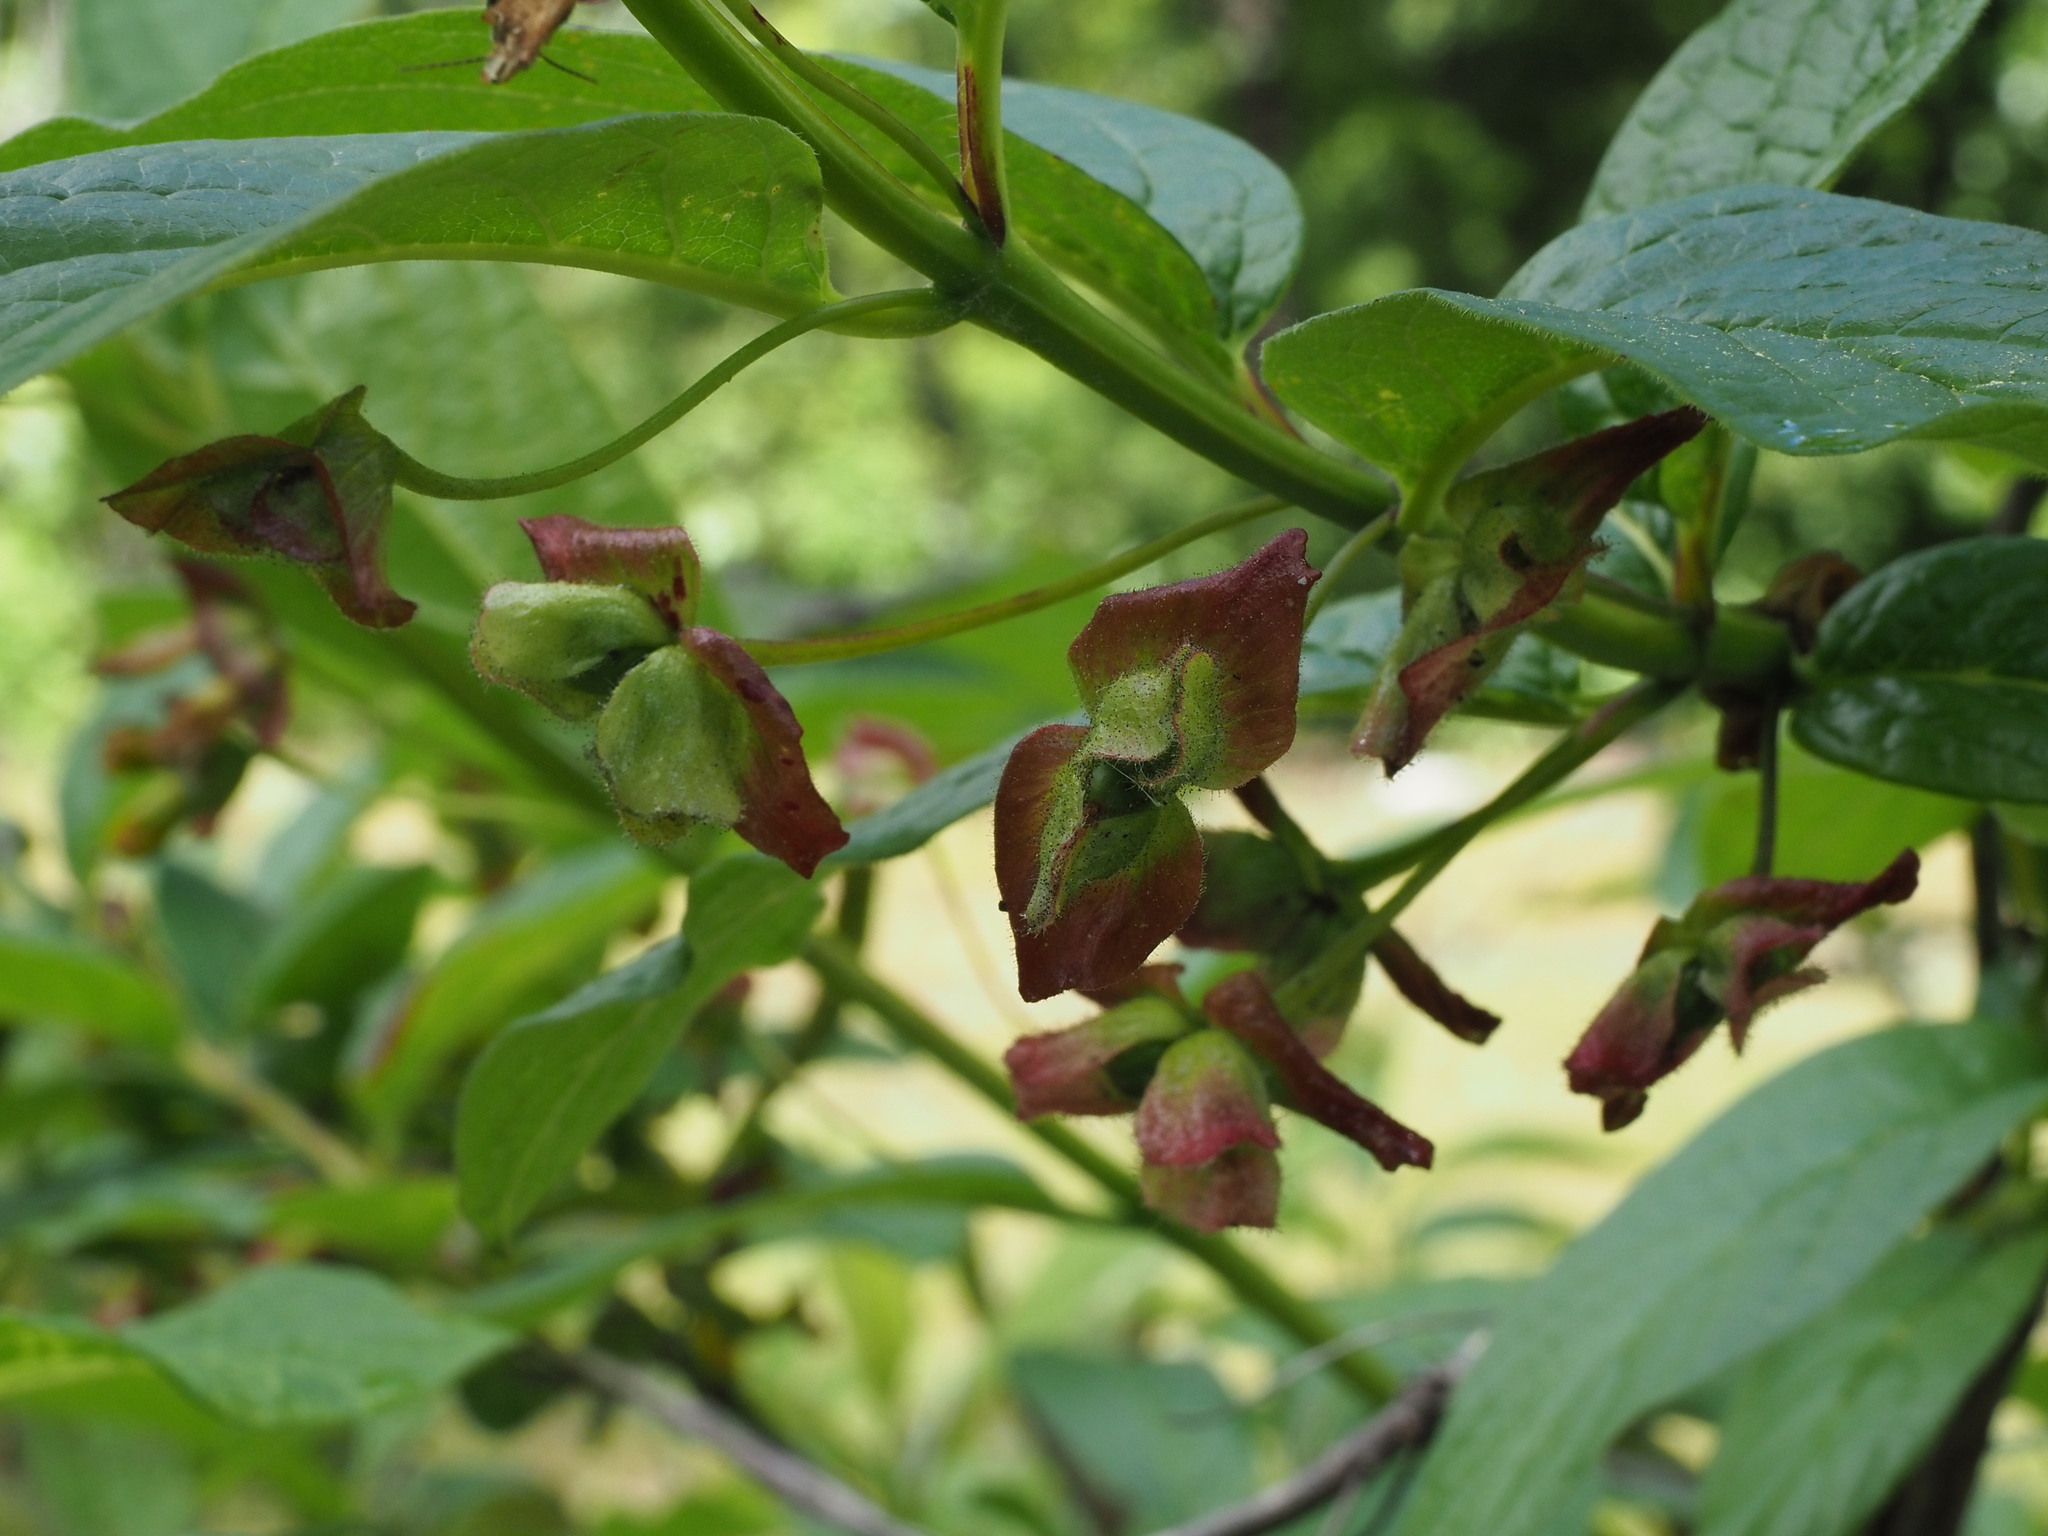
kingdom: Plantae
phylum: Tracheophyta
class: Magnoliopsida
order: Dipsacales
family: Caprifoliaceae
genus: Lonicera
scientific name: Lonicera involucrata
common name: Californian honeysuckle
